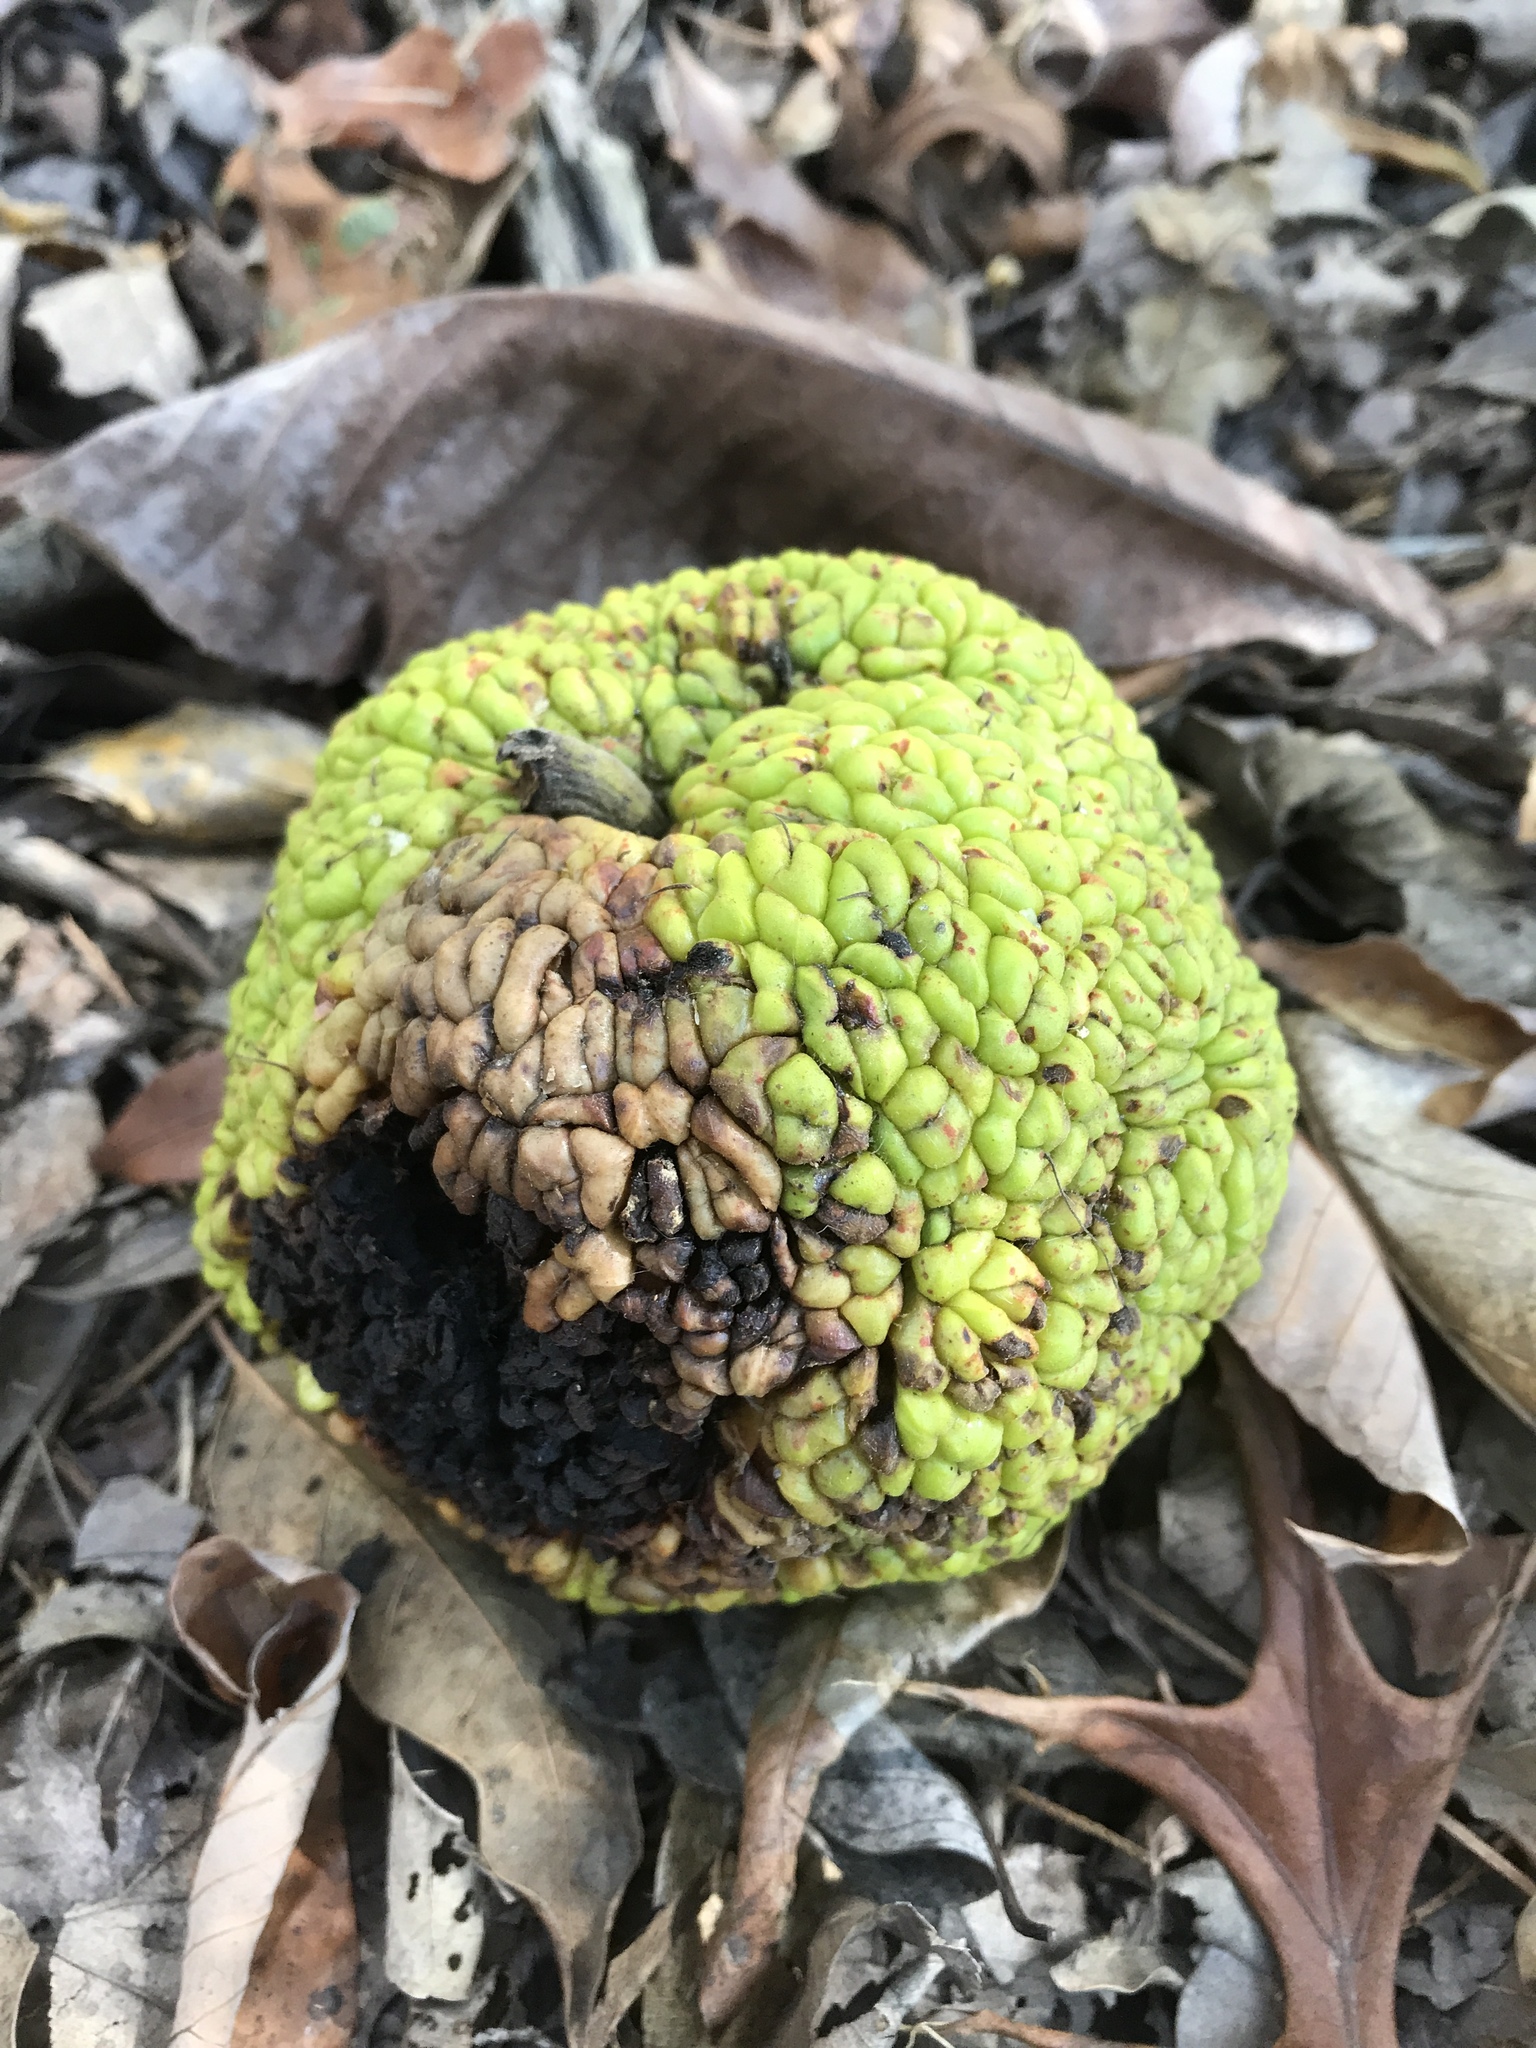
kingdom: Plantae
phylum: Tracheophyta
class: Magnoliopsida
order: Rosales
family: Moraceae
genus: Maclura
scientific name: Maclura pomifera
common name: Osage-orange
